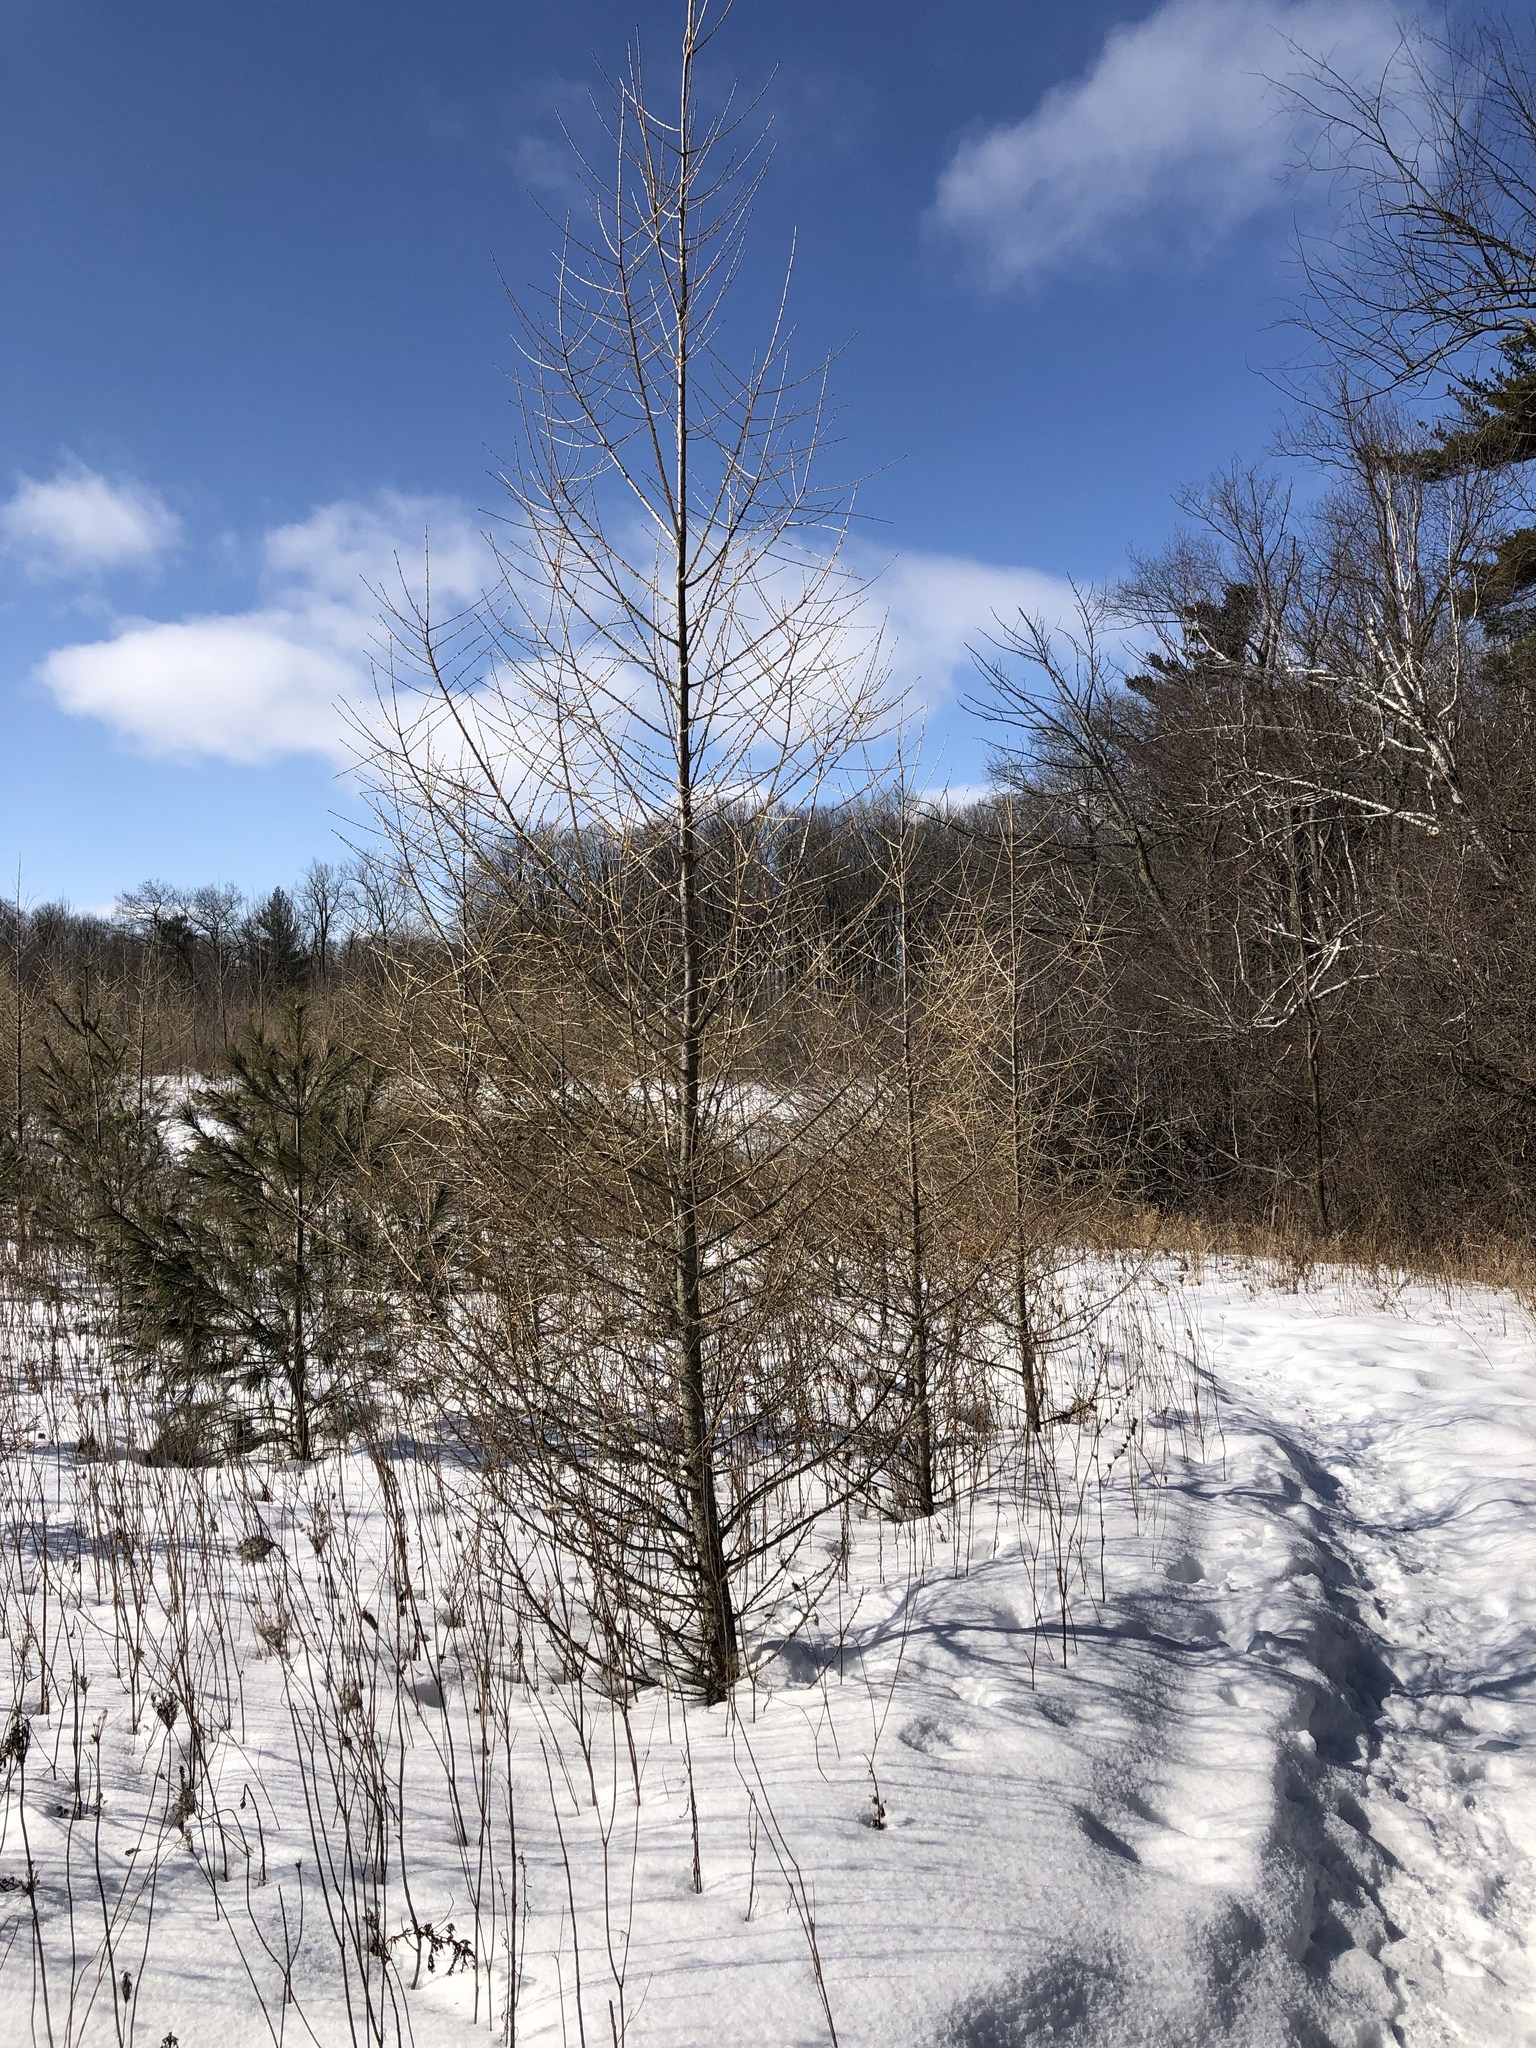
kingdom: Plantae
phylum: Tracheophyta
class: Pinopsida
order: Pinales
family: Pinaceae
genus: Larix
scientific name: Larix laricina
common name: American larch
